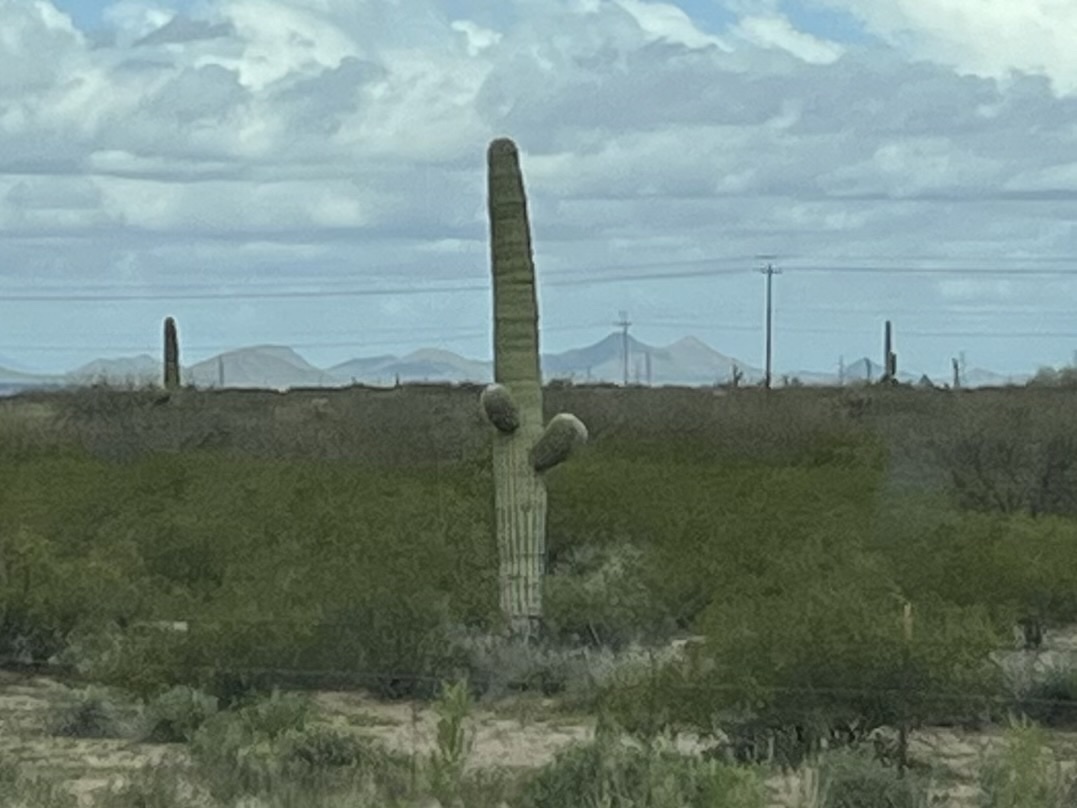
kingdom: Plantae
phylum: Tracheophyta
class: Magnoliopsida
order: Caryophyllales
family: Cactaceae
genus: Carnegiea
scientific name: Carnegiea gigantea
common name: Saguaro
